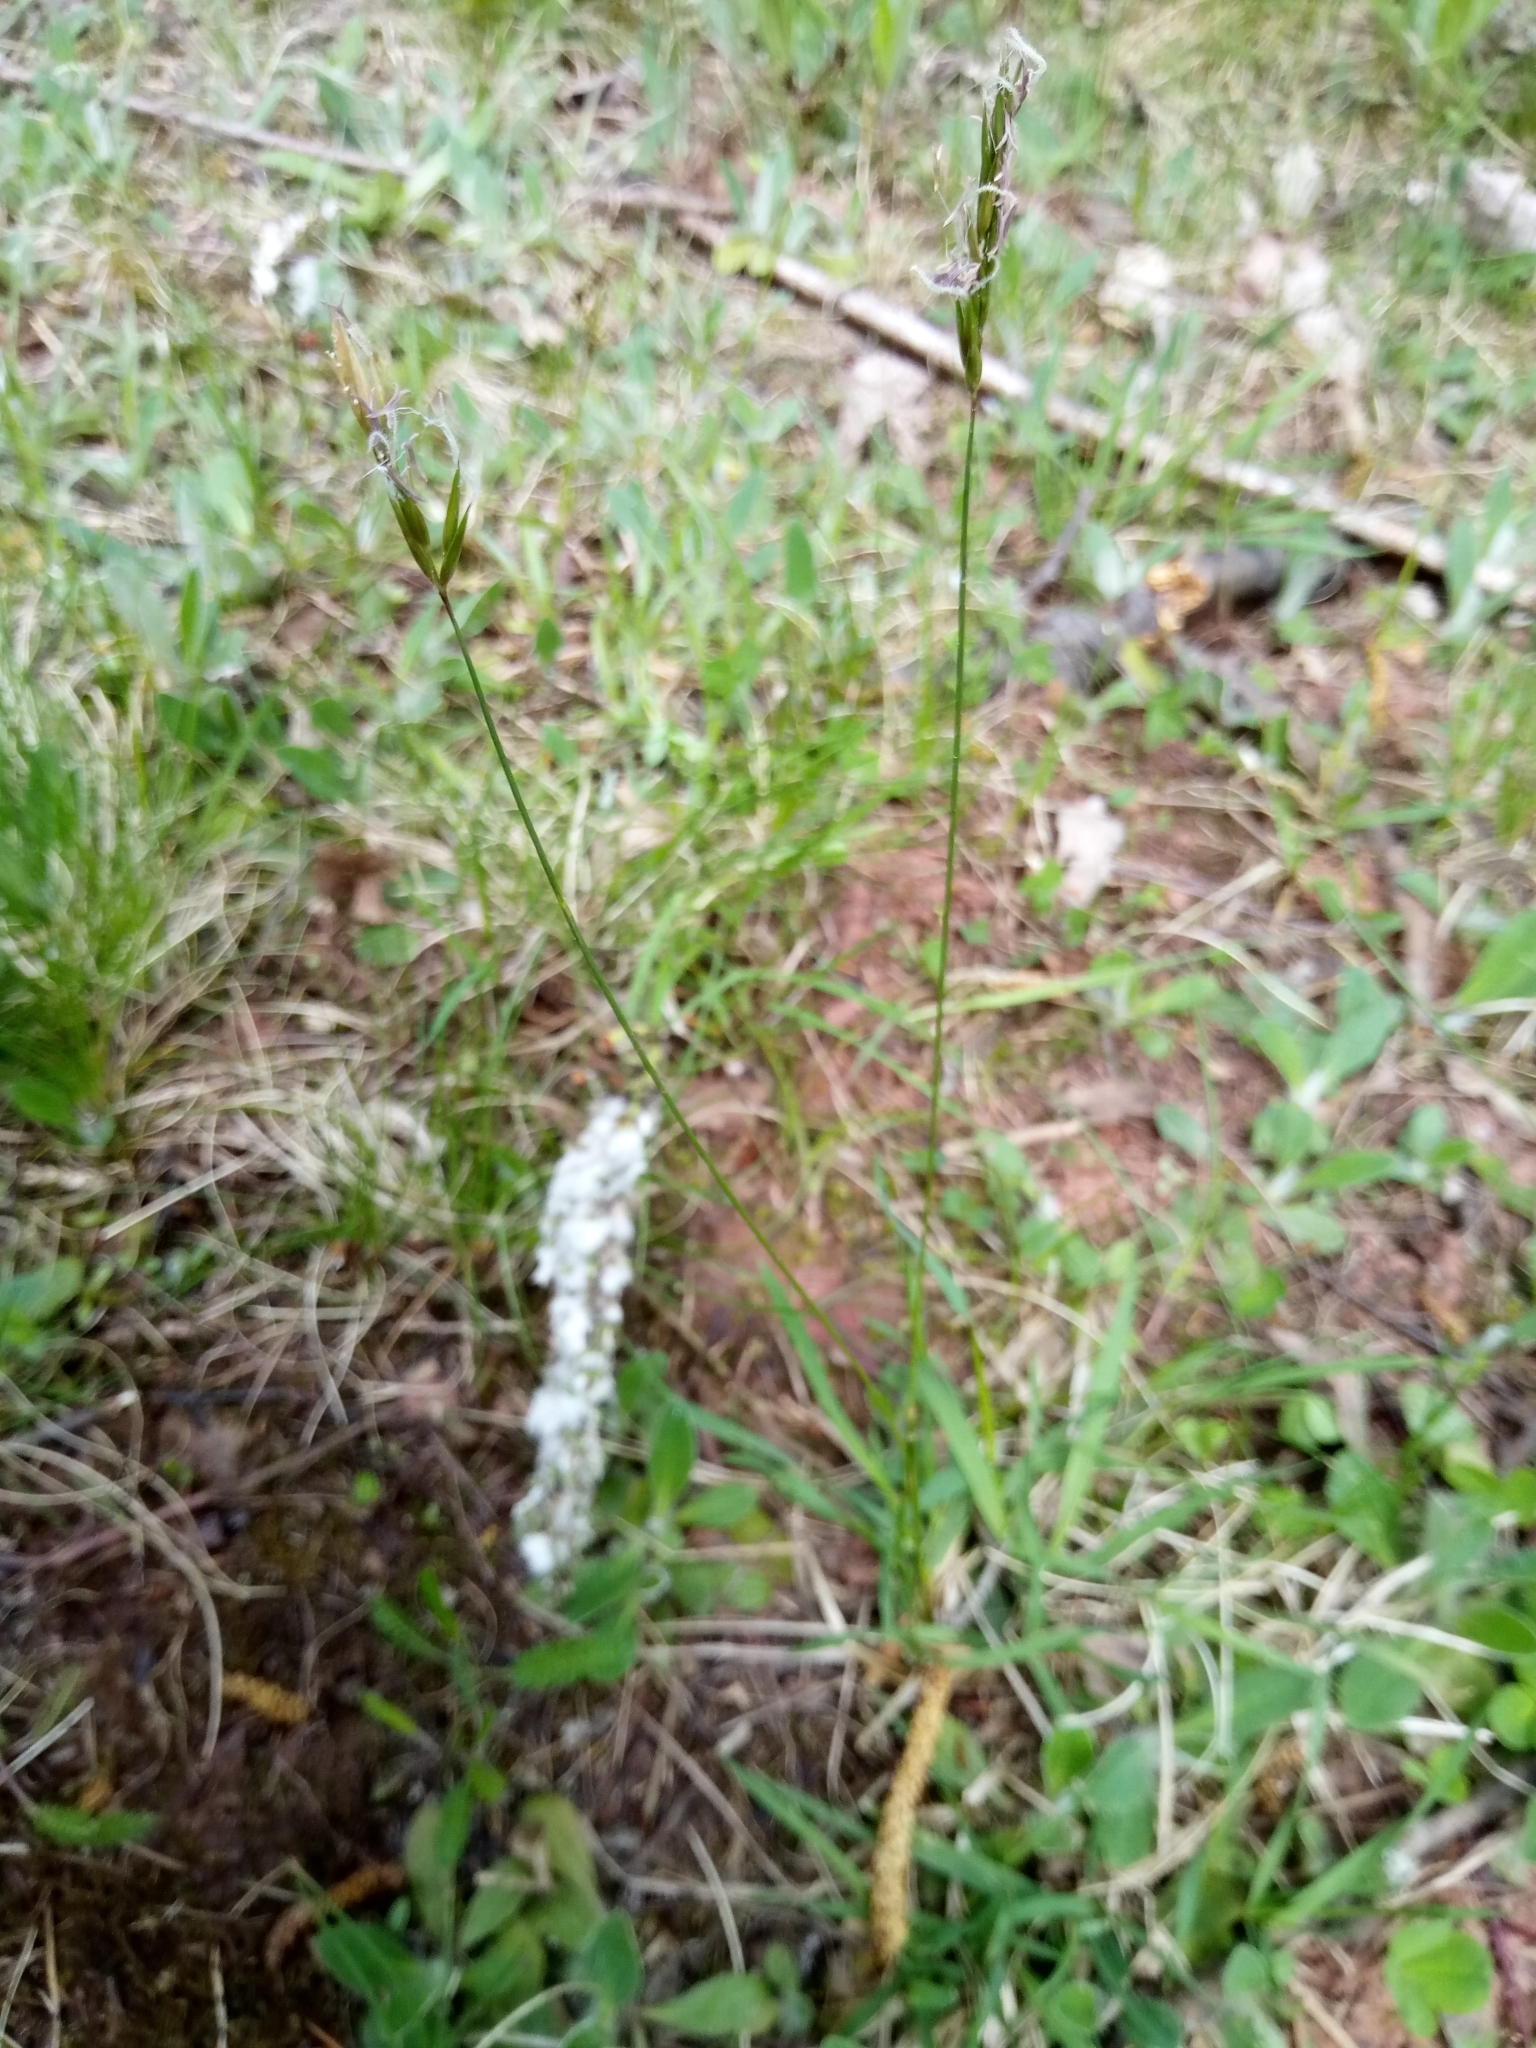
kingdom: Plantae
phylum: Tracheophyta
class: Liliopsida
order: Poales
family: Poaceae
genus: Anthoxanthum
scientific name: Anthoxanthum odoratum
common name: Sweet vernalgrass
